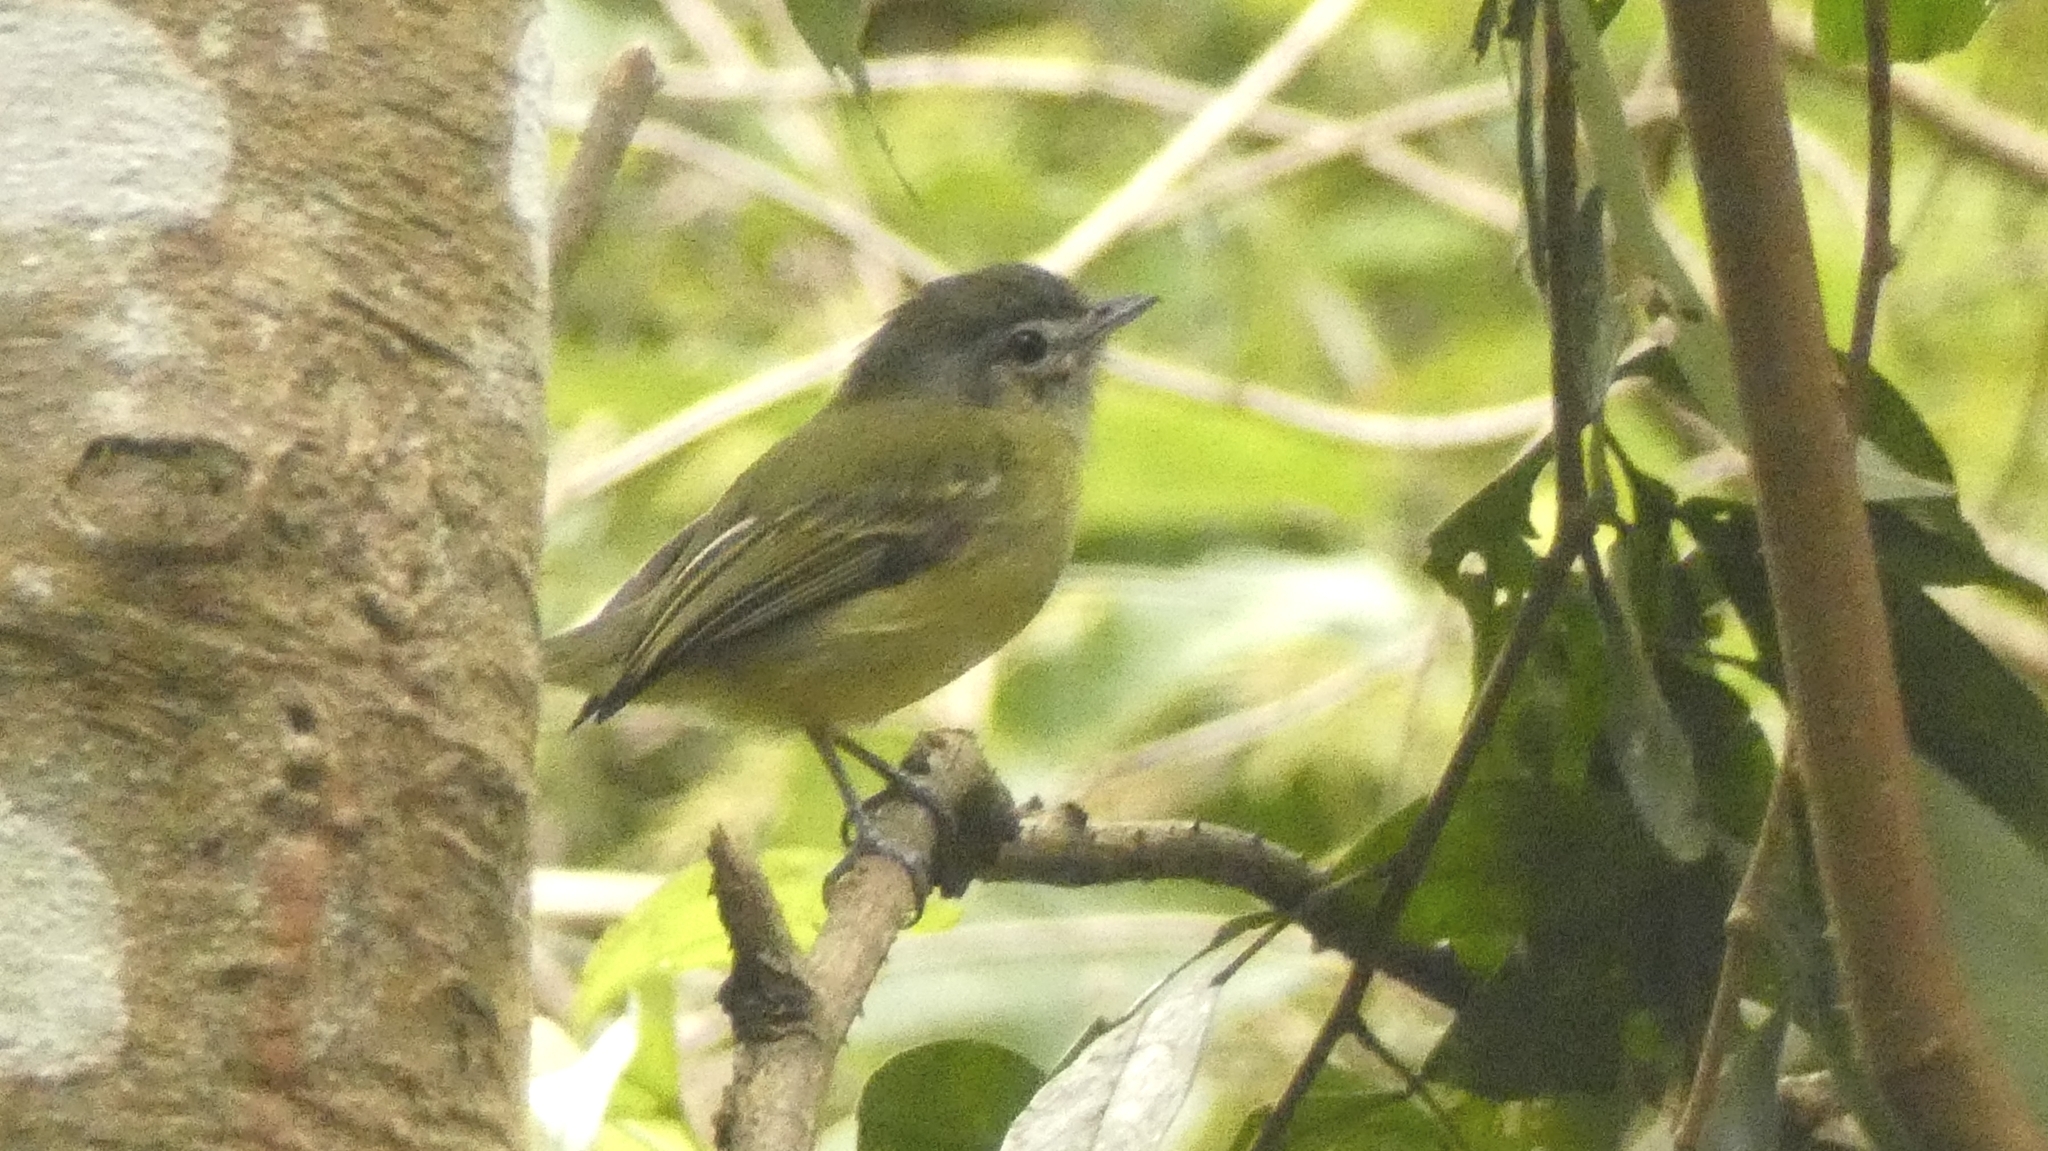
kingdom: Animalia
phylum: Chordata
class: Aves
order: Passeriformes
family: Tyrannidae
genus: Tolmomyias
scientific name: Tolmomyias sulphurescens
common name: Yellow-olive flycatcher
